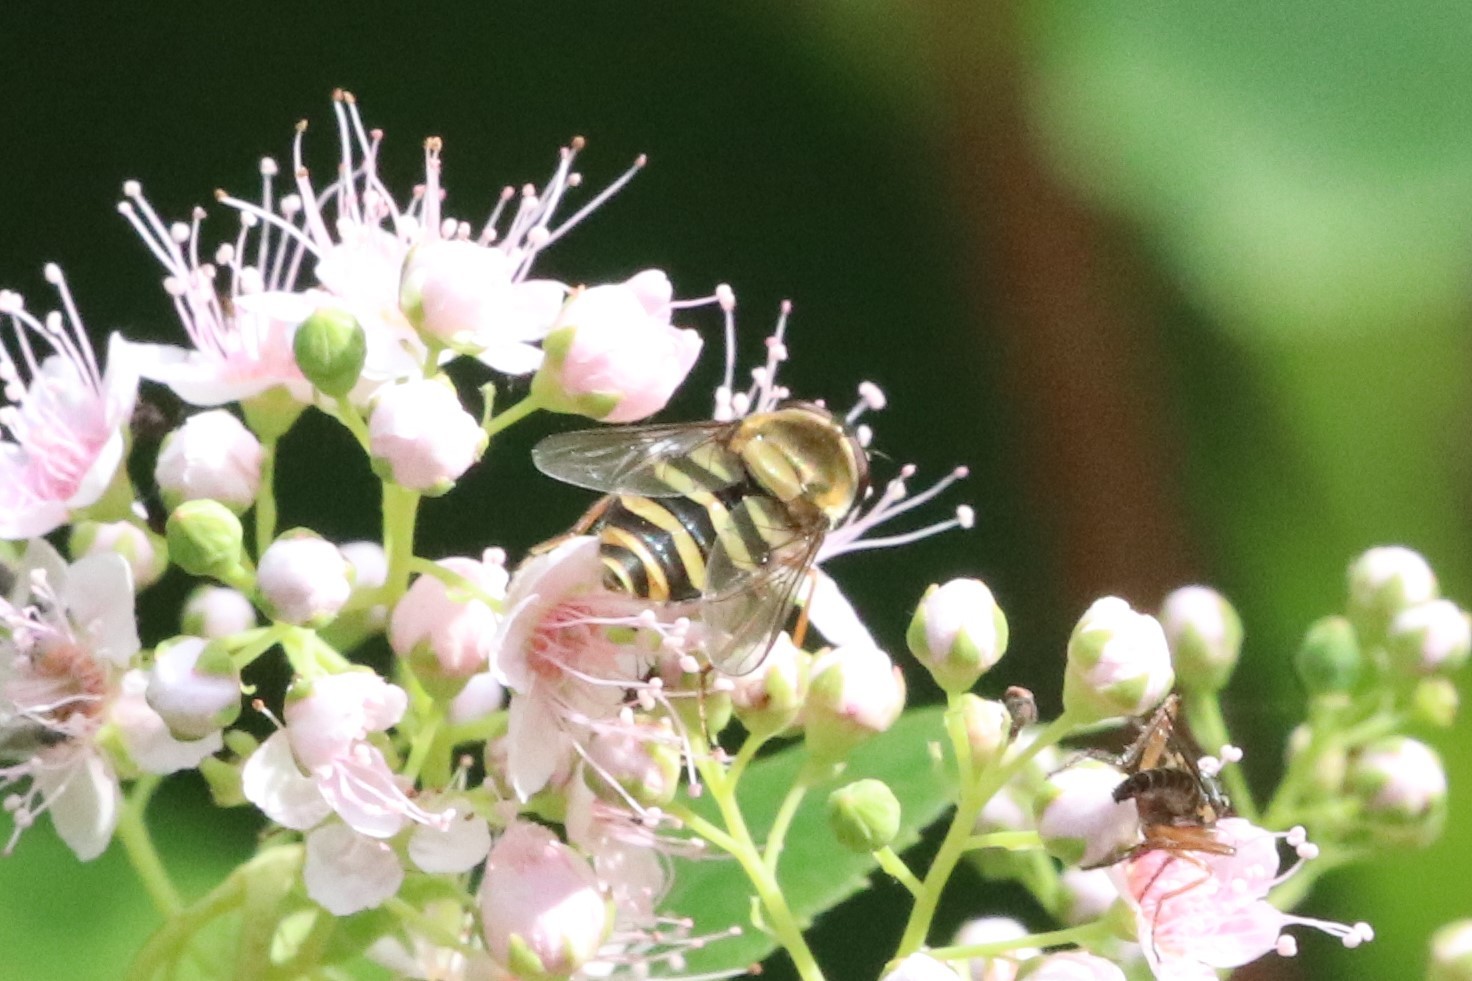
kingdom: Animalia
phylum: Arthropoda
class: Insecta
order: Diptera
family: Syrphidae
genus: Syrphus
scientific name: Syrphus
